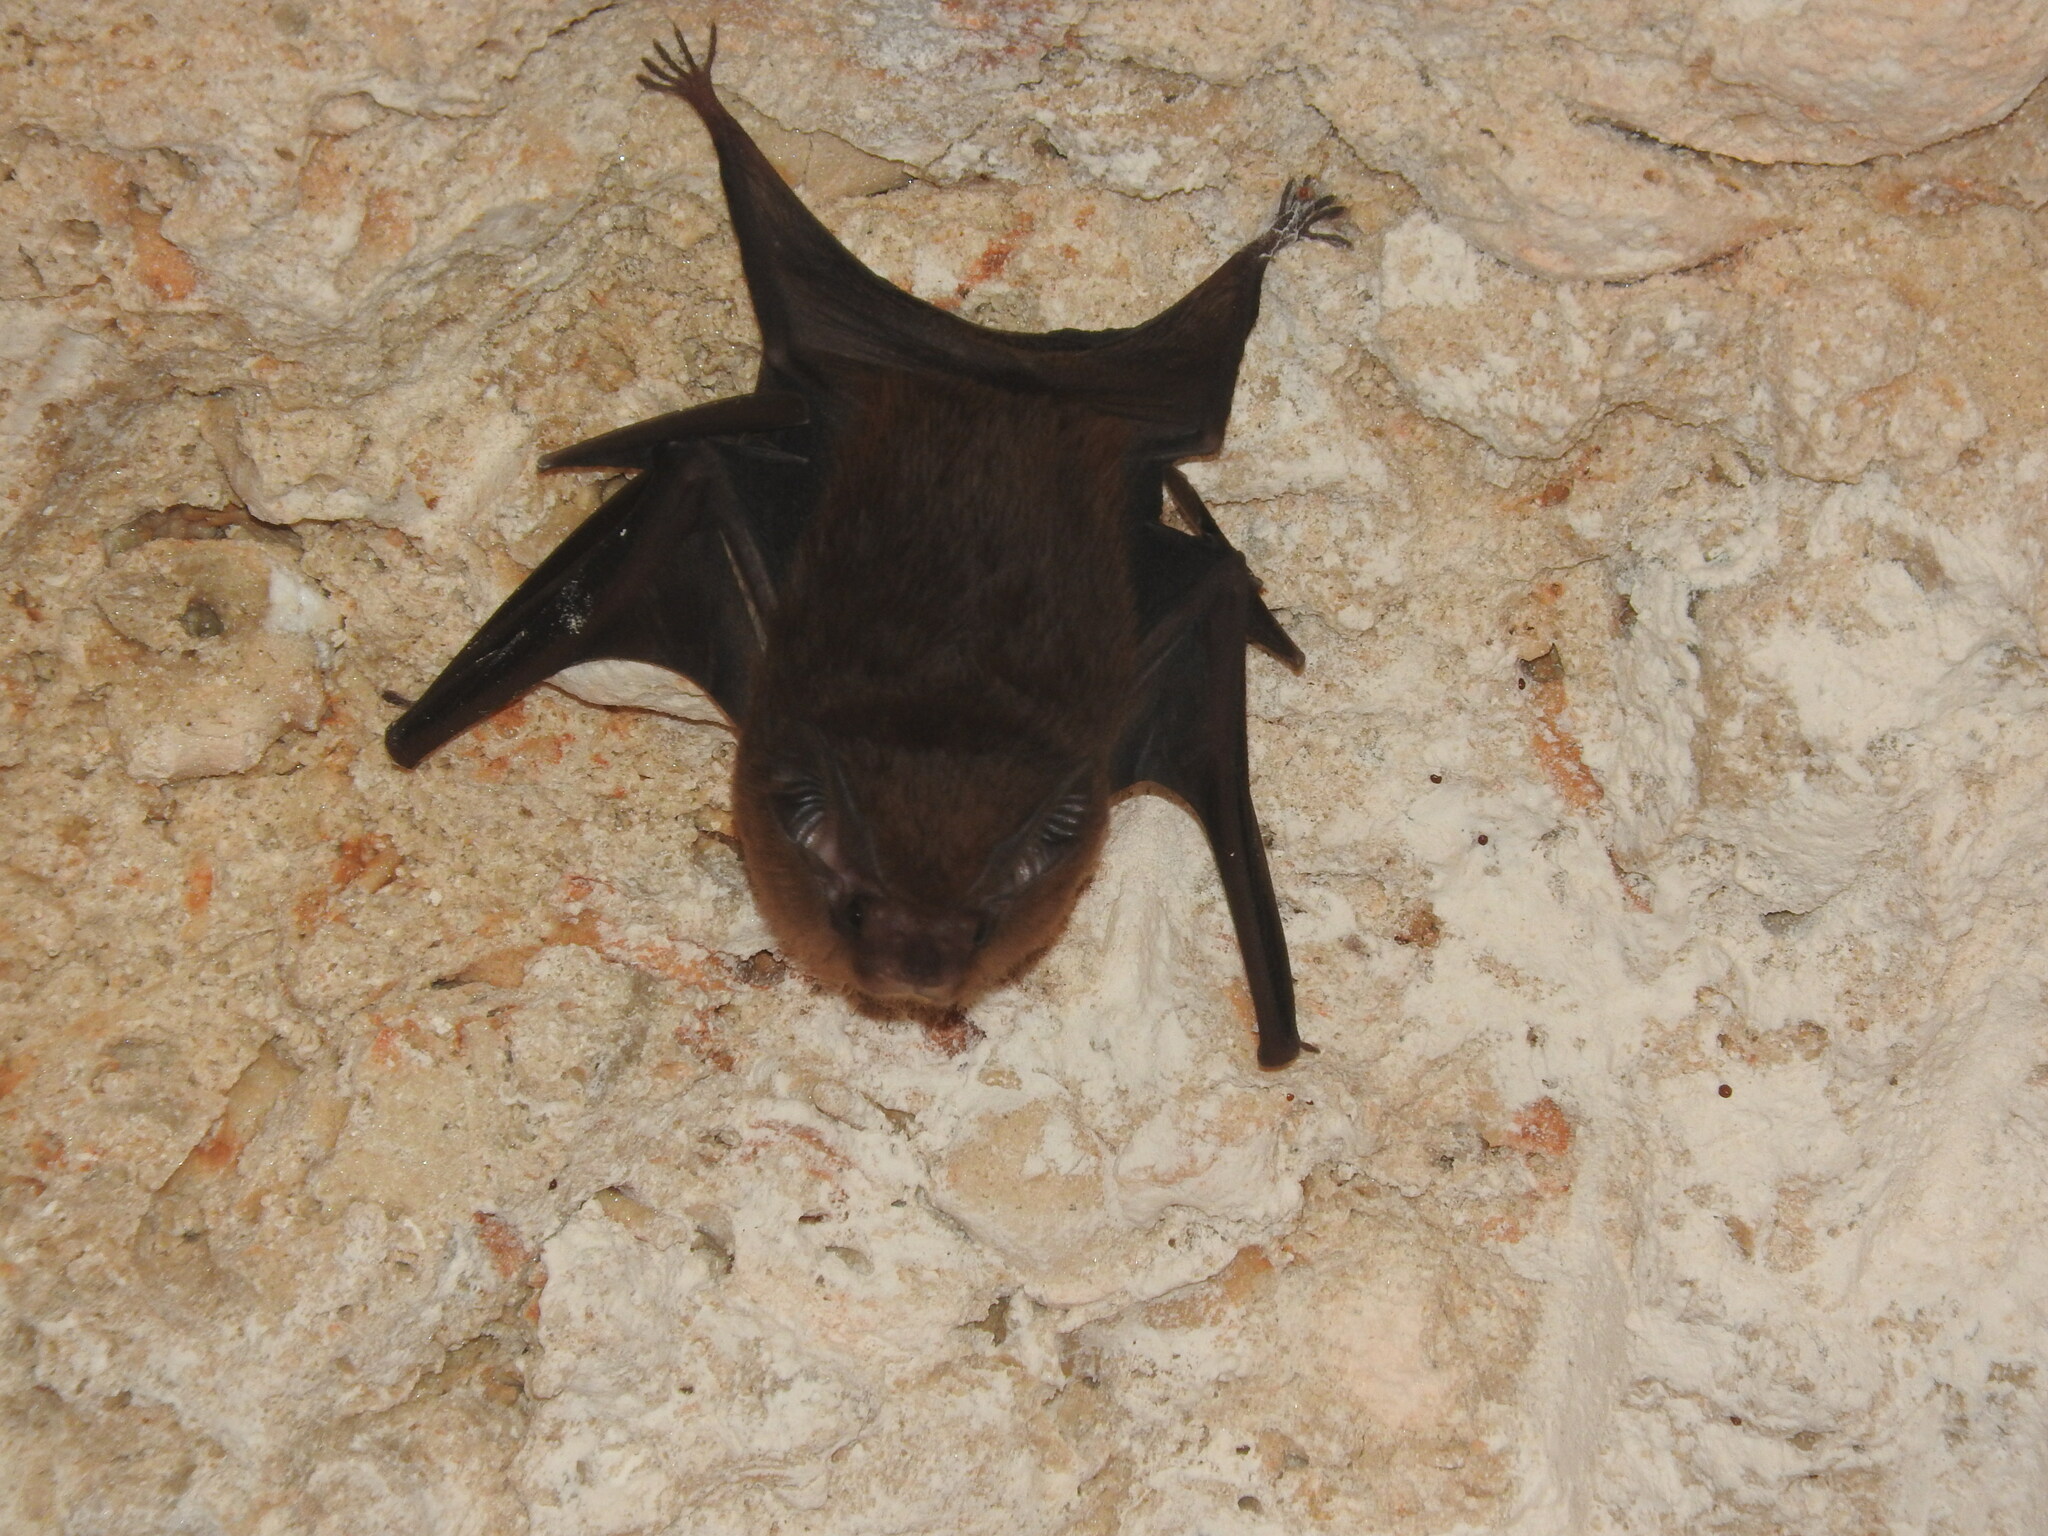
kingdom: Animalia
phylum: Chordata
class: Mammalia
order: Chiroptera
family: Emballonuridae
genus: Peropteryx
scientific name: Peropteryx macrotis
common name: Lesser dog-like bat
